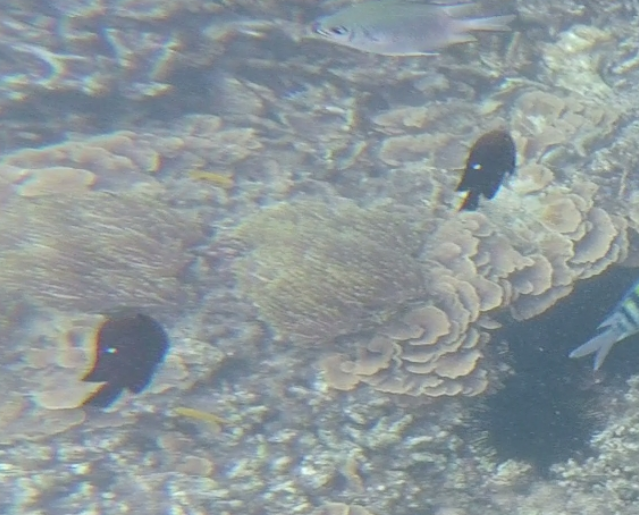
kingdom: Animalia
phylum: Chordata
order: Perciformes
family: Pomacentridae
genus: Dascyllus
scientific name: Dascyllus trimaculatus
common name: Threespot dascyllus
